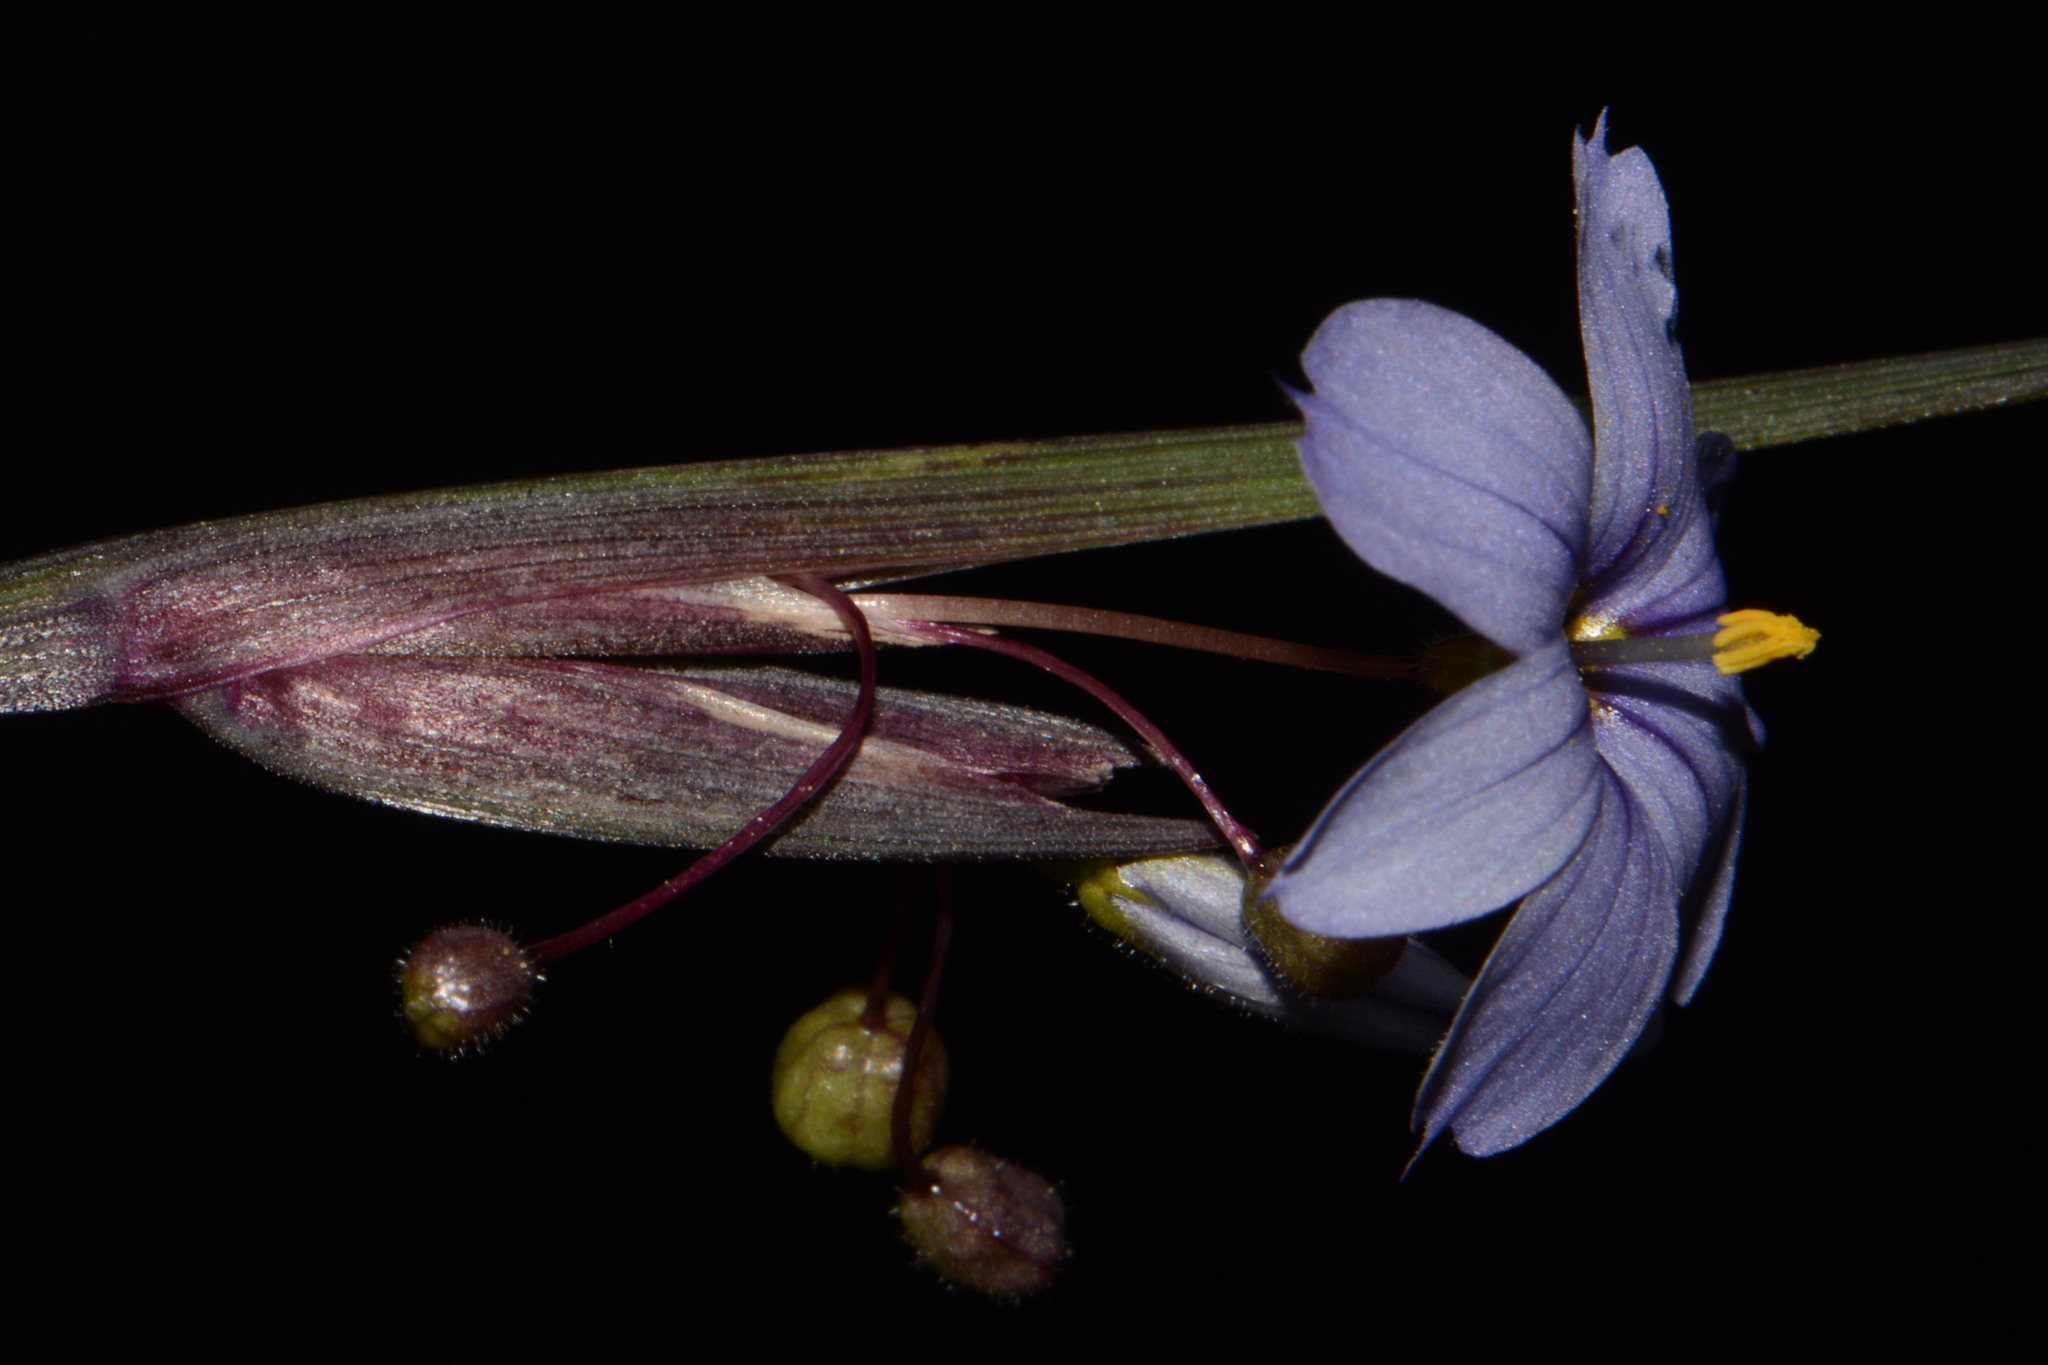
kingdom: Plantae
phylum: Tracheophyta
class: Liliopsida
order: Asparagales
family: Iridaceae
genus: Sisyrinchium
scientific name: Sisyrinchium calciphilum
